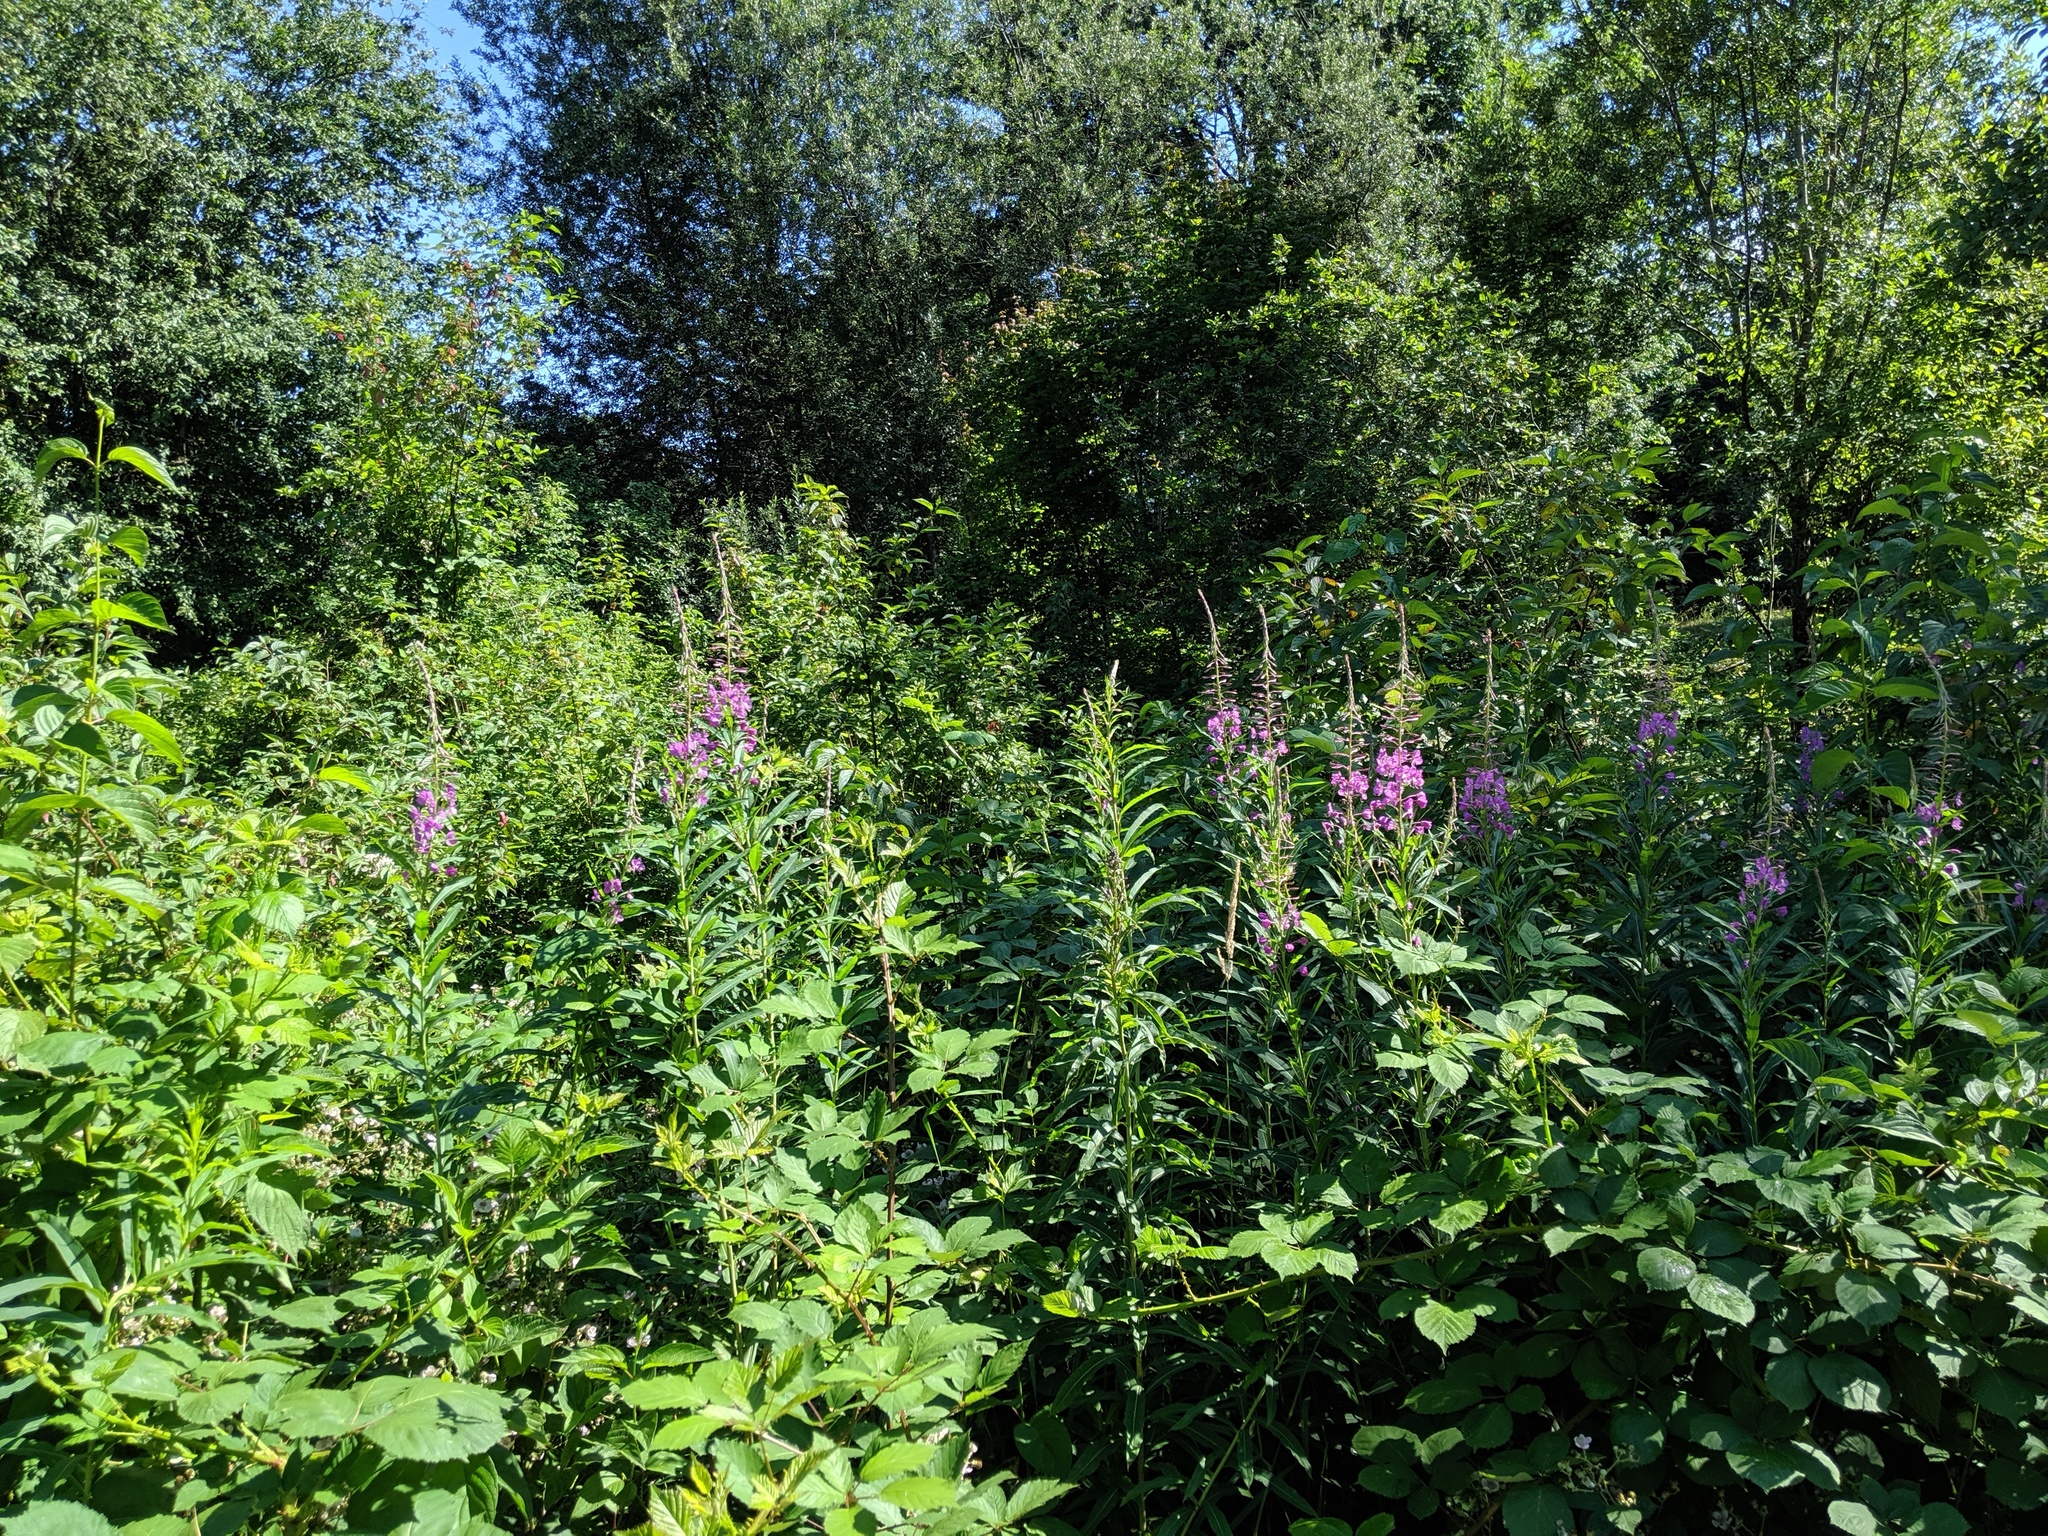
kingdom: Plantae
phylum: Tracheophyta
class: Magnoliopsida
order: Myrtales
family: Onagraceae
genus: Chamaenerion
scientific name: Chamaenerion angustifolium
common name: Fireweed
